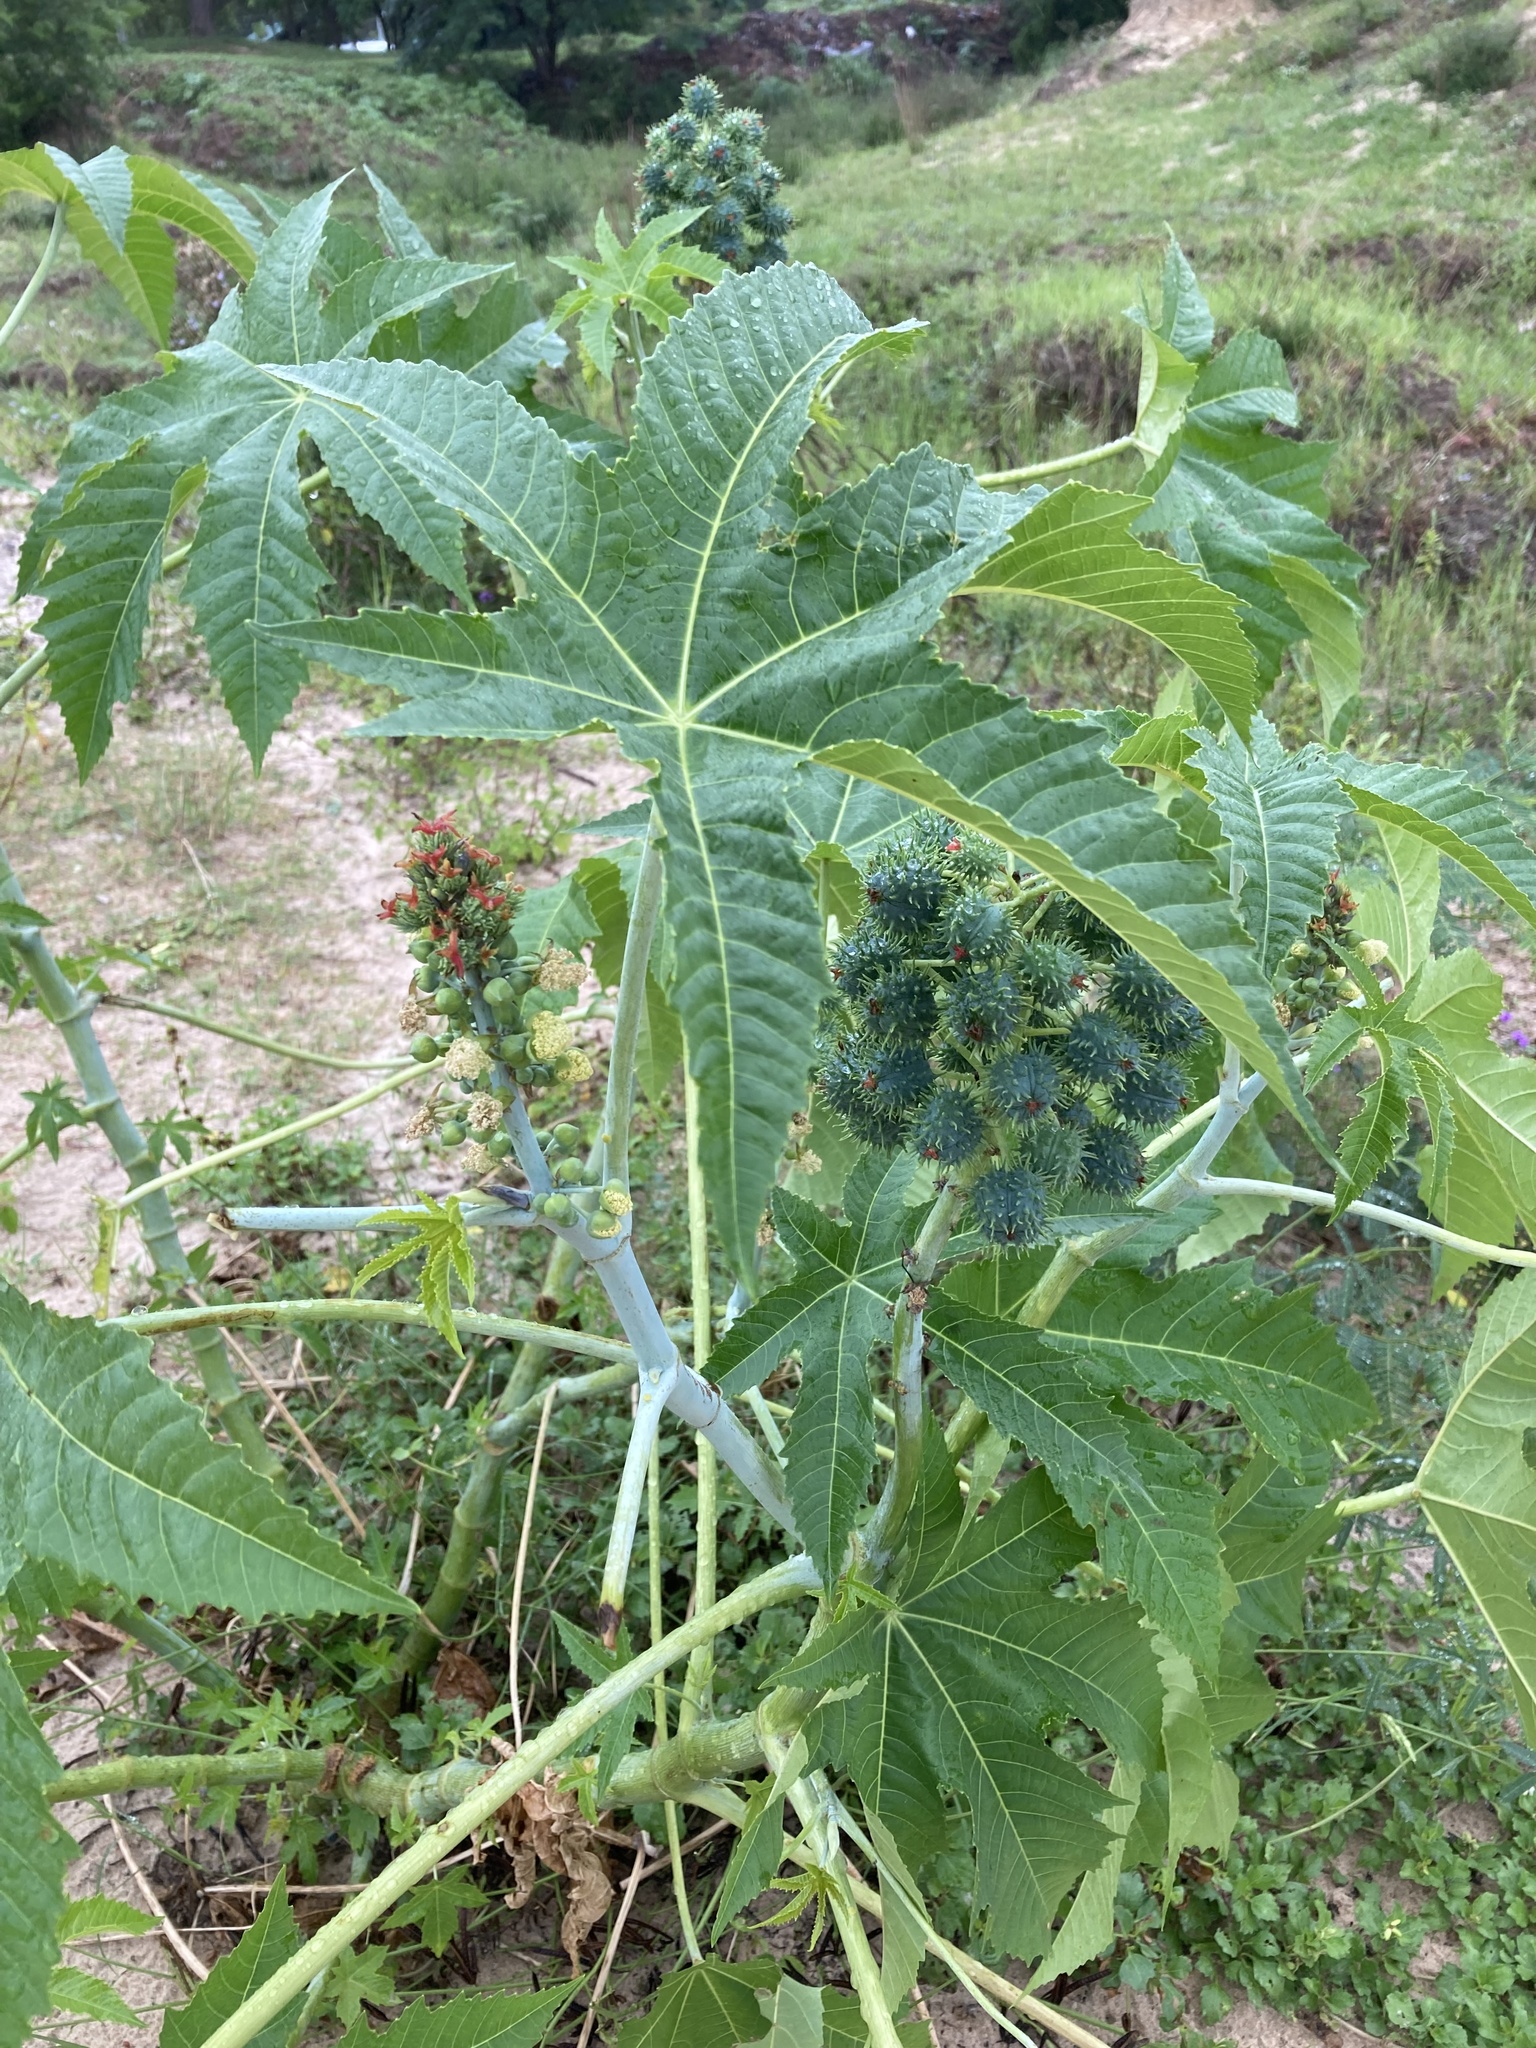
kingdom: Plantae
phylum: Tracheophyta
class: Magnoliopsida
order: Malpighiales
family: Euphorbiaceae
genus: Ricinus
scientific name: Ricinus communis
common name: Castor-oil-plant
